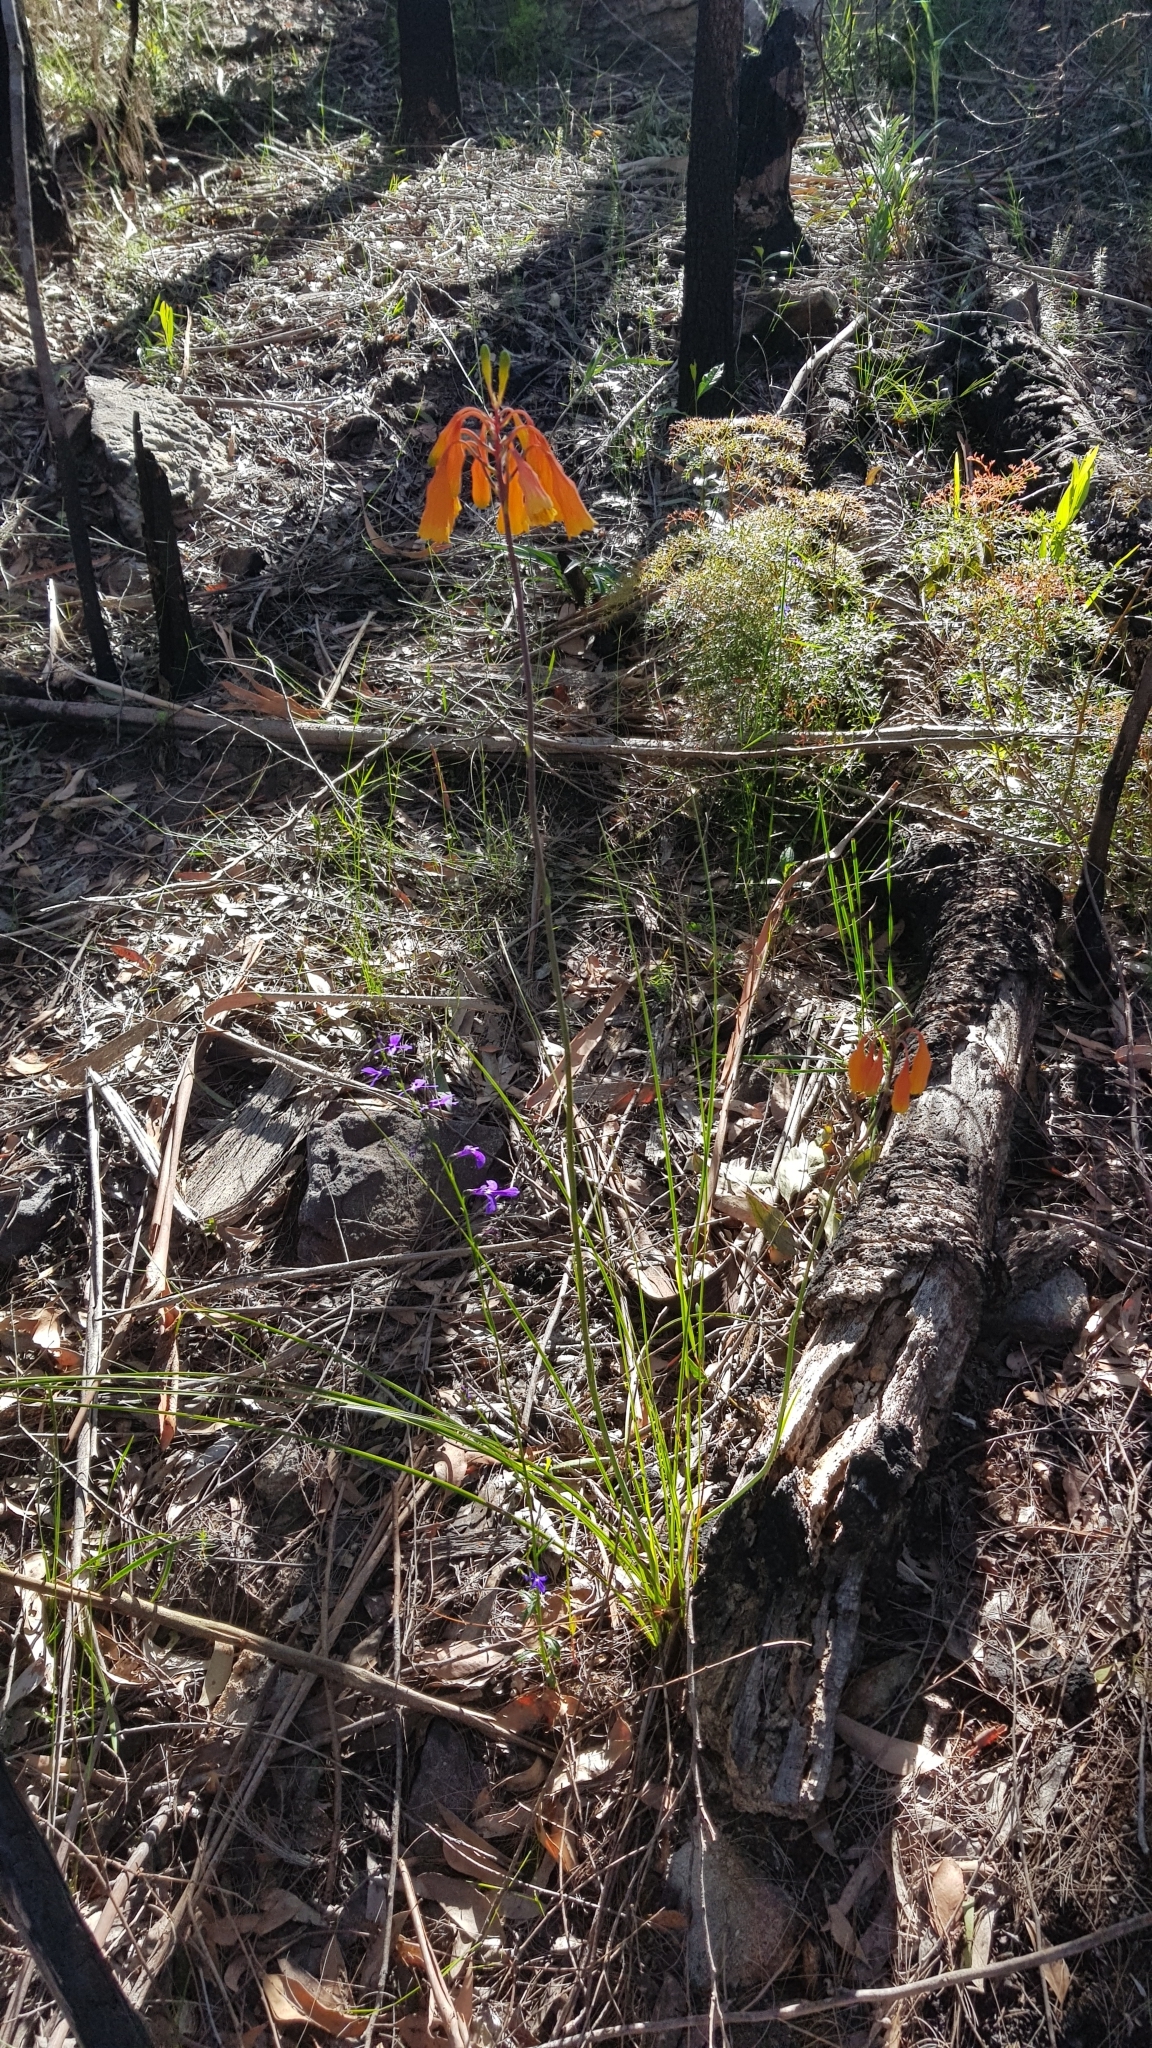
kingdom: Plantae
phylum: Tracheophyta
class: Magnoliopsida
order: Asterales
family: Campanulaceae
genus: Lobelia
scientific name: Lobelia dentata
